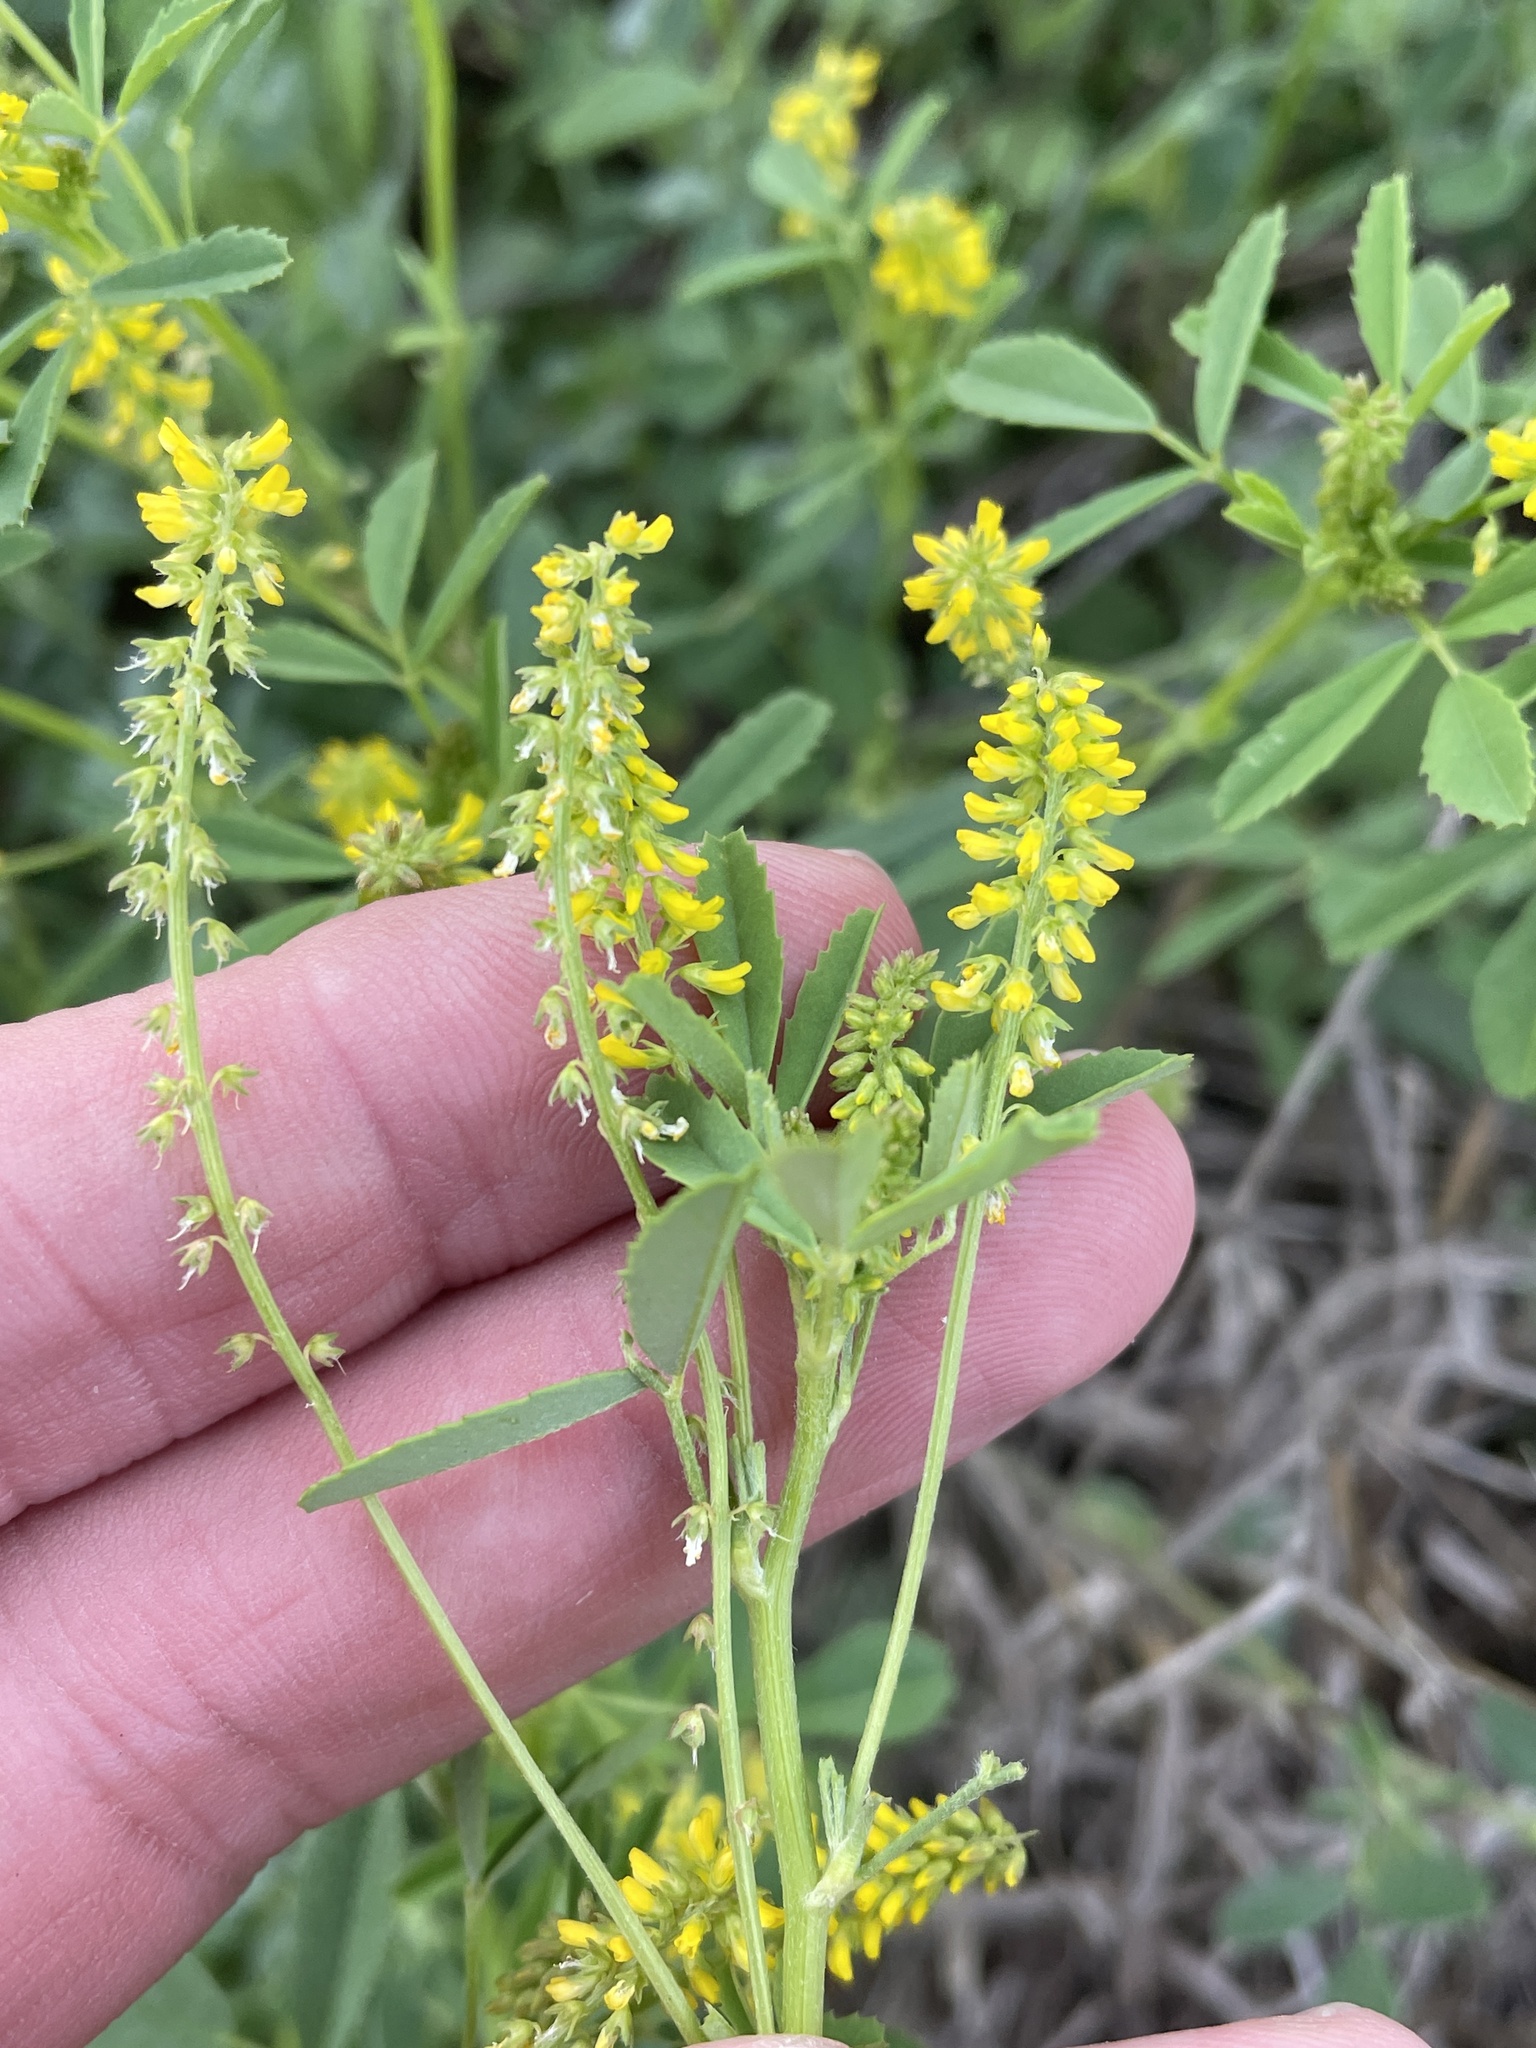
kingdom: Plantae
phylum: Tracheophyta
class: Magnoliopsida
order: Fabales
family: Fabaceae
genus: Melilotus
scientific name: Melilotus indicus
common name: Small melilot
